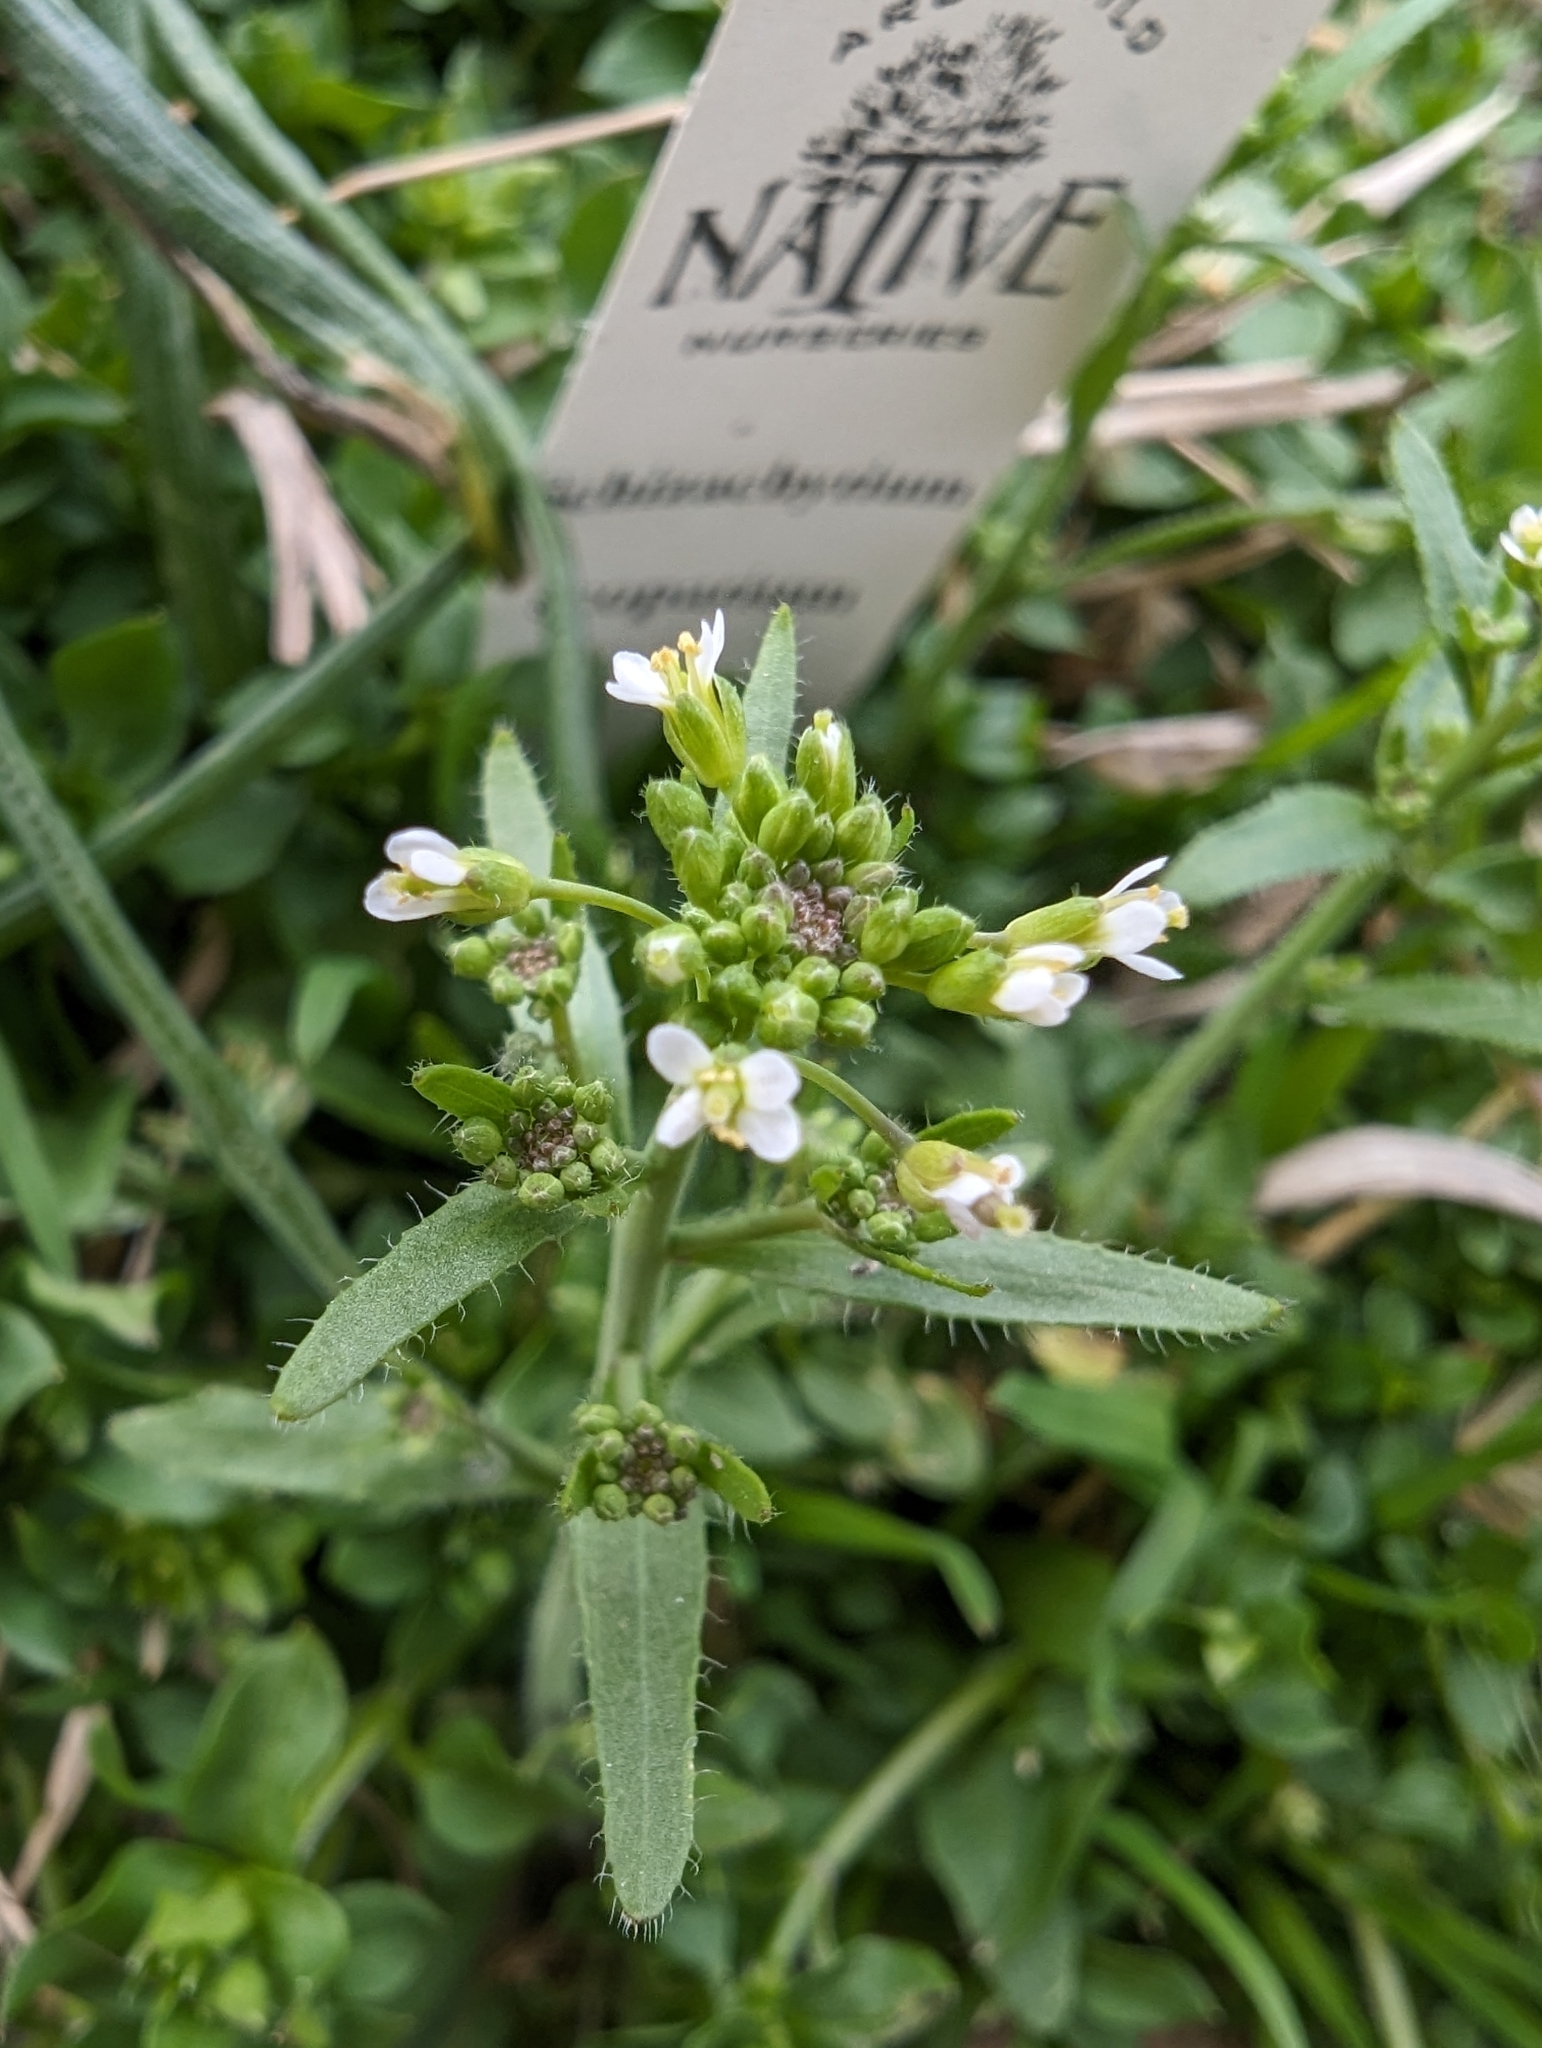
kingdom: Plantae
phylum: Tracheophyta
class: Magnoliopsida
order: Brassicales
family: Brassicaceae
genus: Arabidopsis
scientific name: Arabidopsis thaliana
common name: Thale cress
